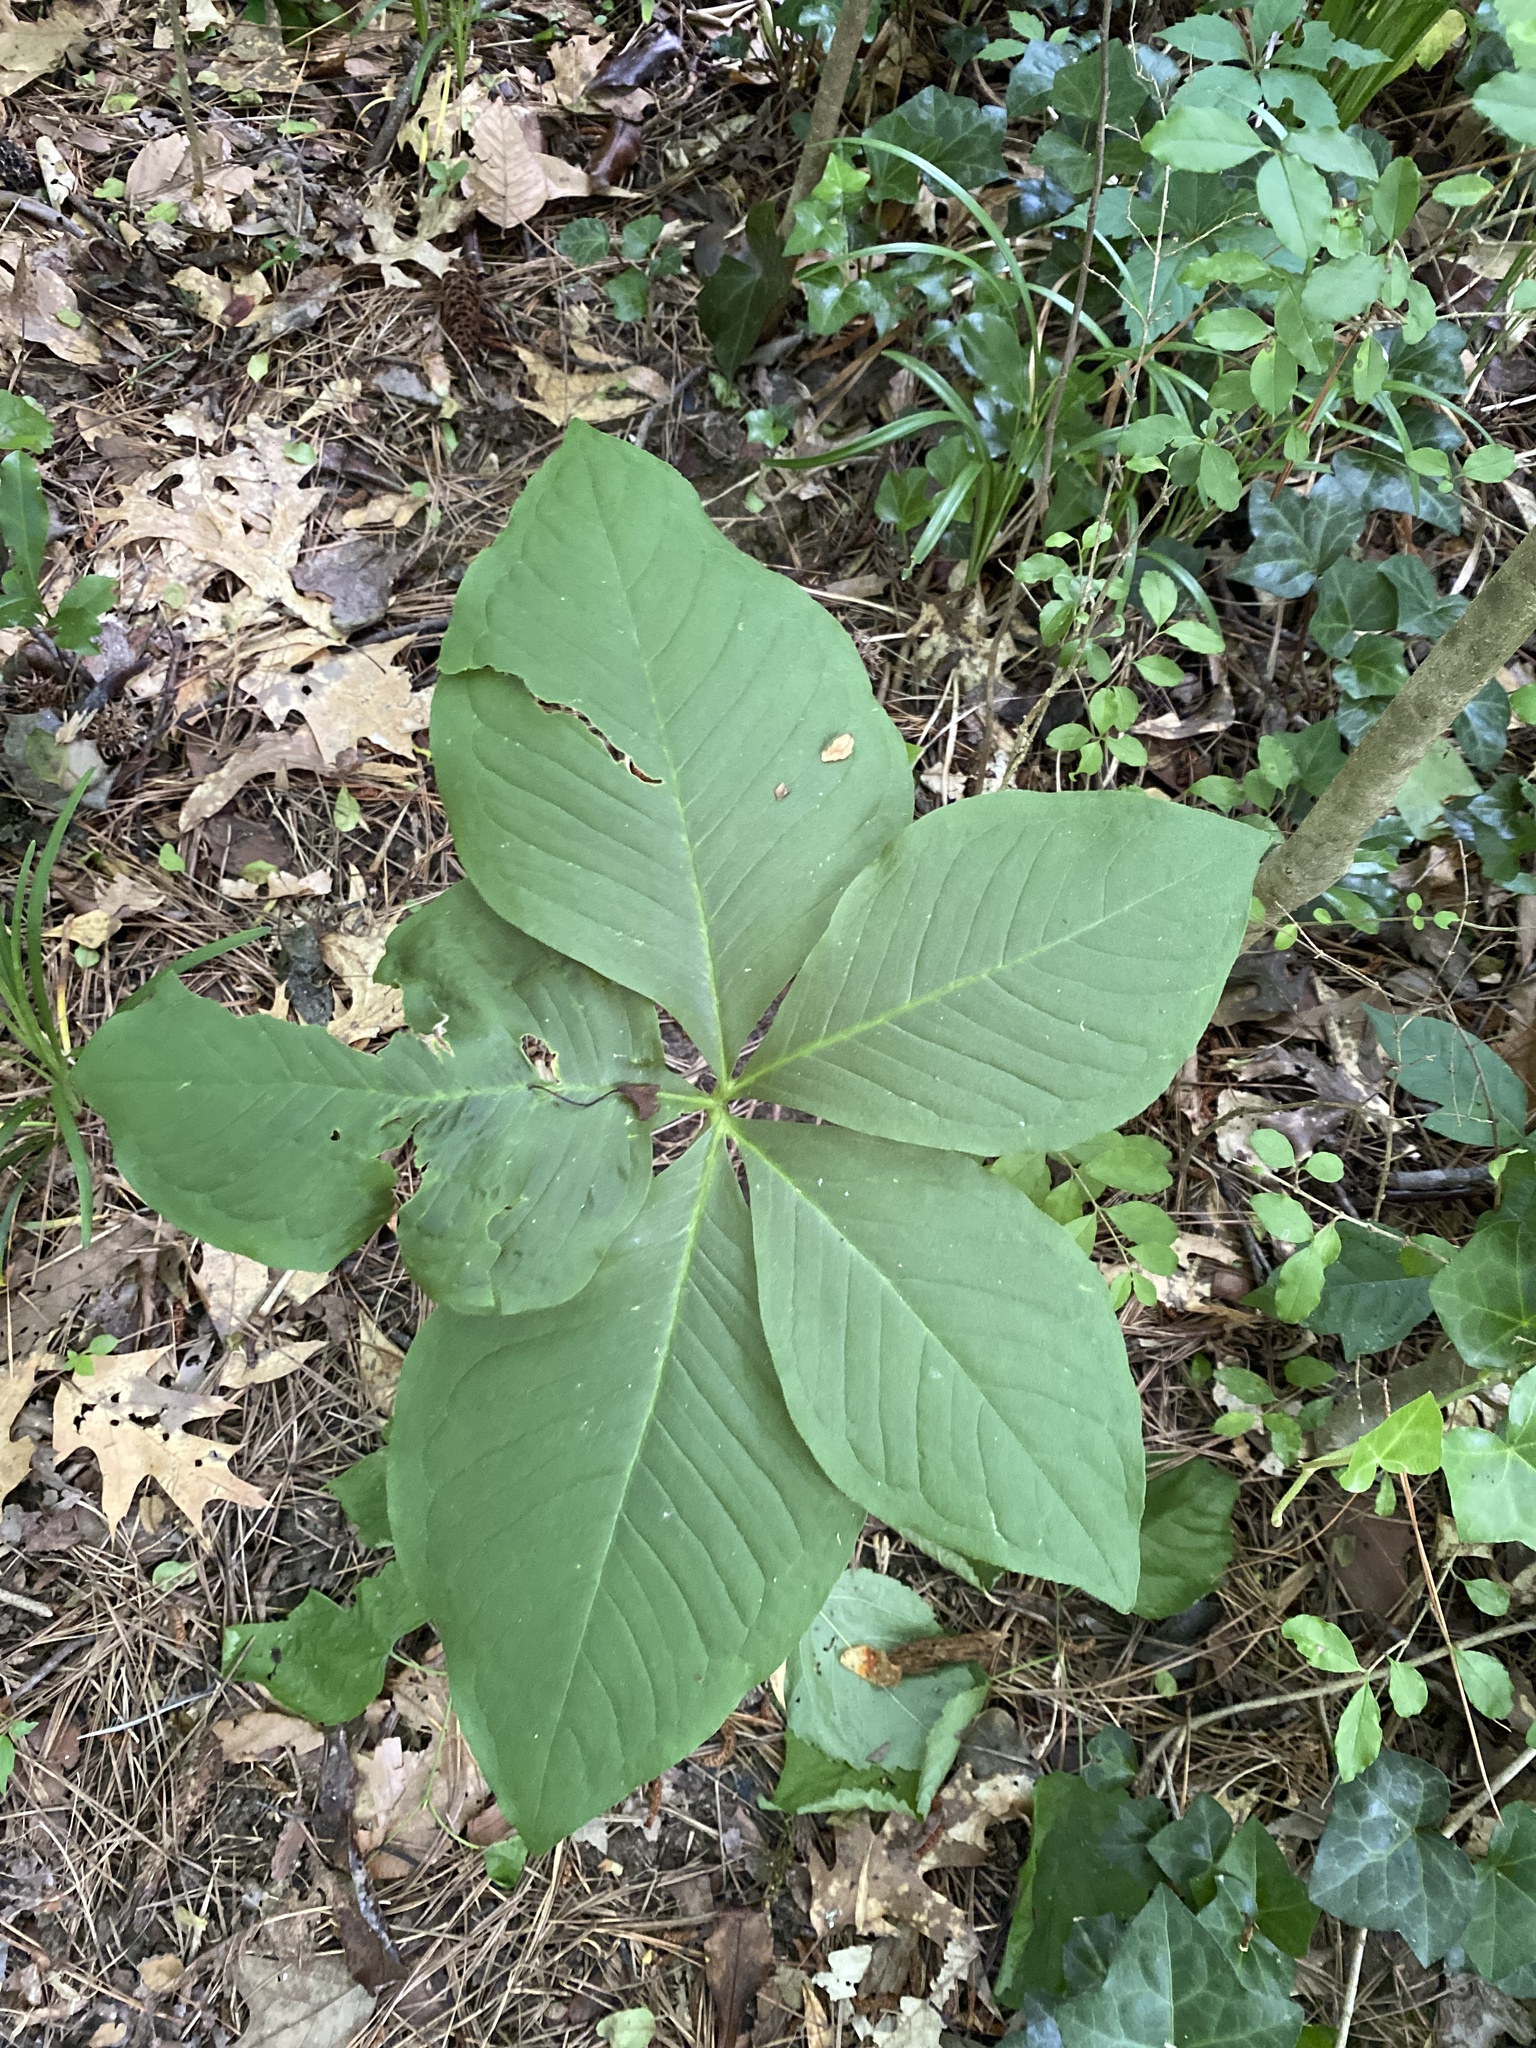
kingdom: Plantae
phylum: Tracheophyta
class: Liliopsida
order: Alismatales
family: Araceae
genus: Arisaema
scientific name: Arisaema quinatum
